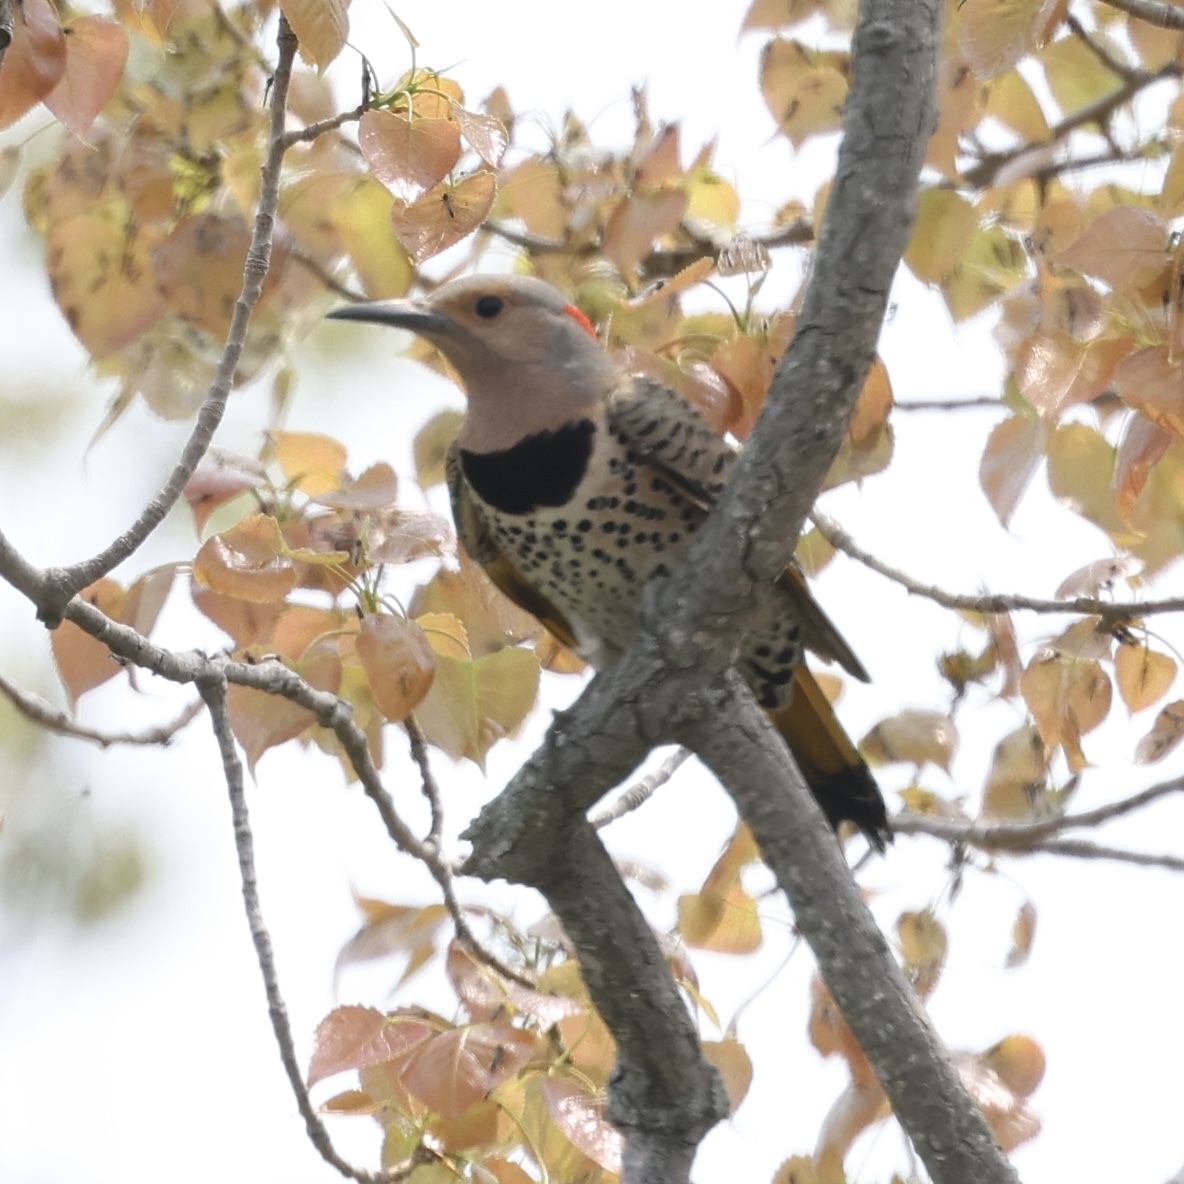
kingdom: Animalia
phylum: Chordata
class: Aves
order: Piciformes
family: Picidae
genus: Colaptes
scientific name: Colaptes auratus
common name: Northern flicker
